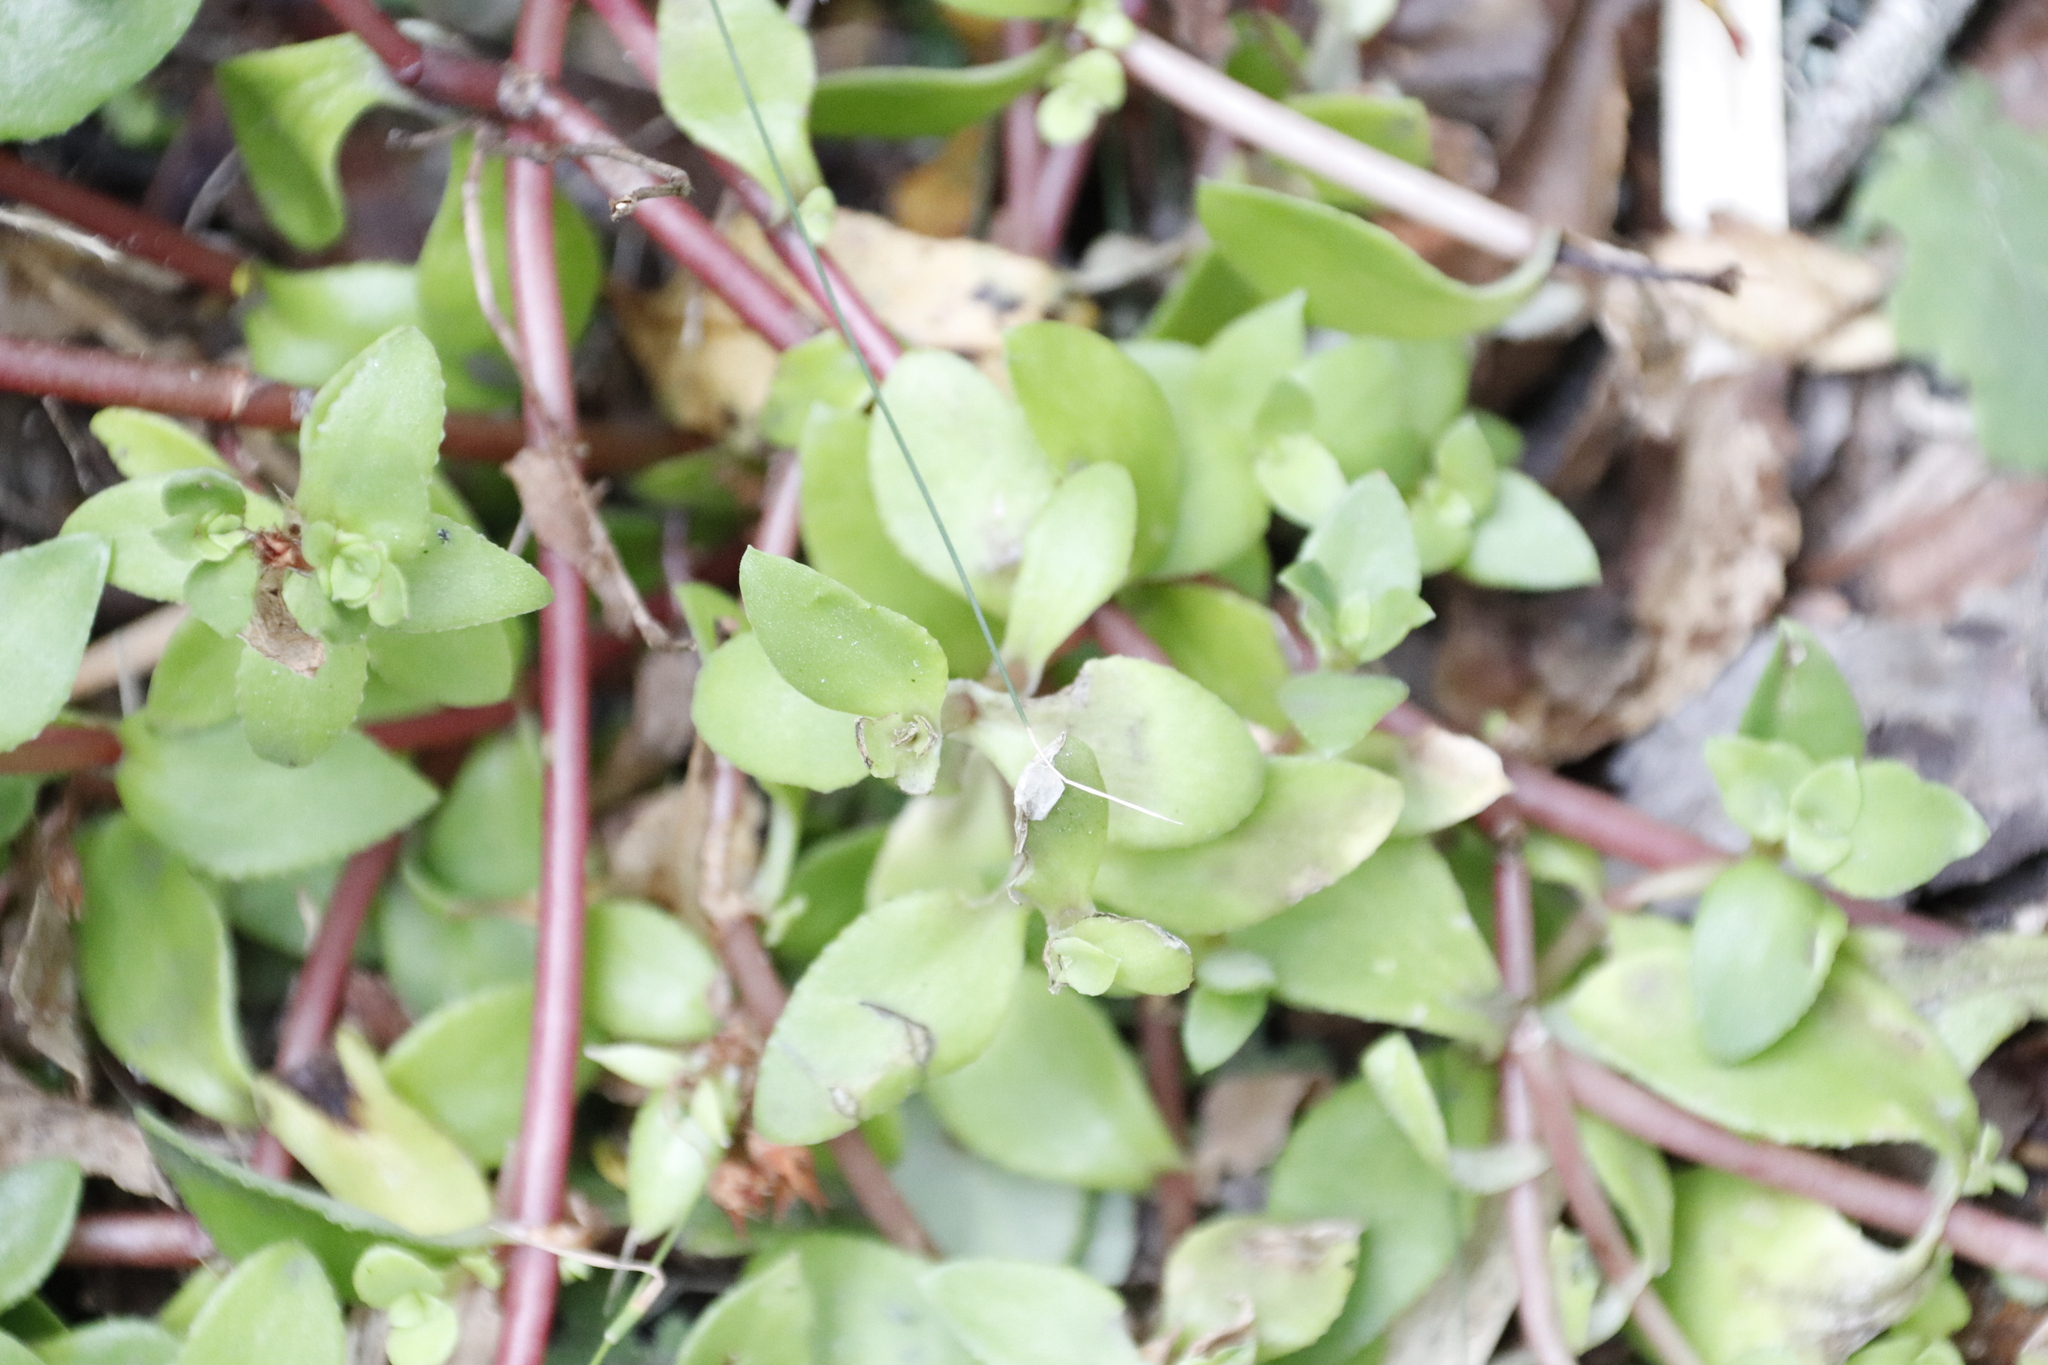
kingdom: Plantae
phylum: Tracheophyta
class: Magnoliopsida
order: Saxifragales
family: Crassulaceae
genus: Crassula
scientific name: Crassula pellucida
